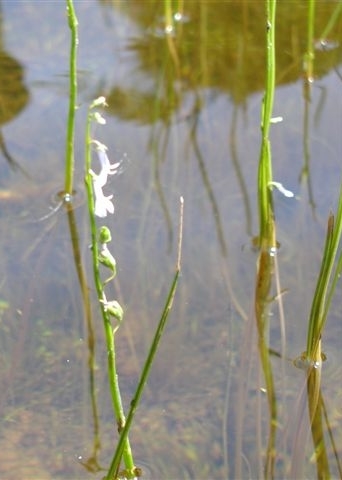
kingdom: Plantae
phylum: Tracheophyta
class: Magnoliopsida
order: Asterales
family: Campanulaceae
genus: Lobelia
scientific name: Lobelia dortmanna
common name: Water lobelia
